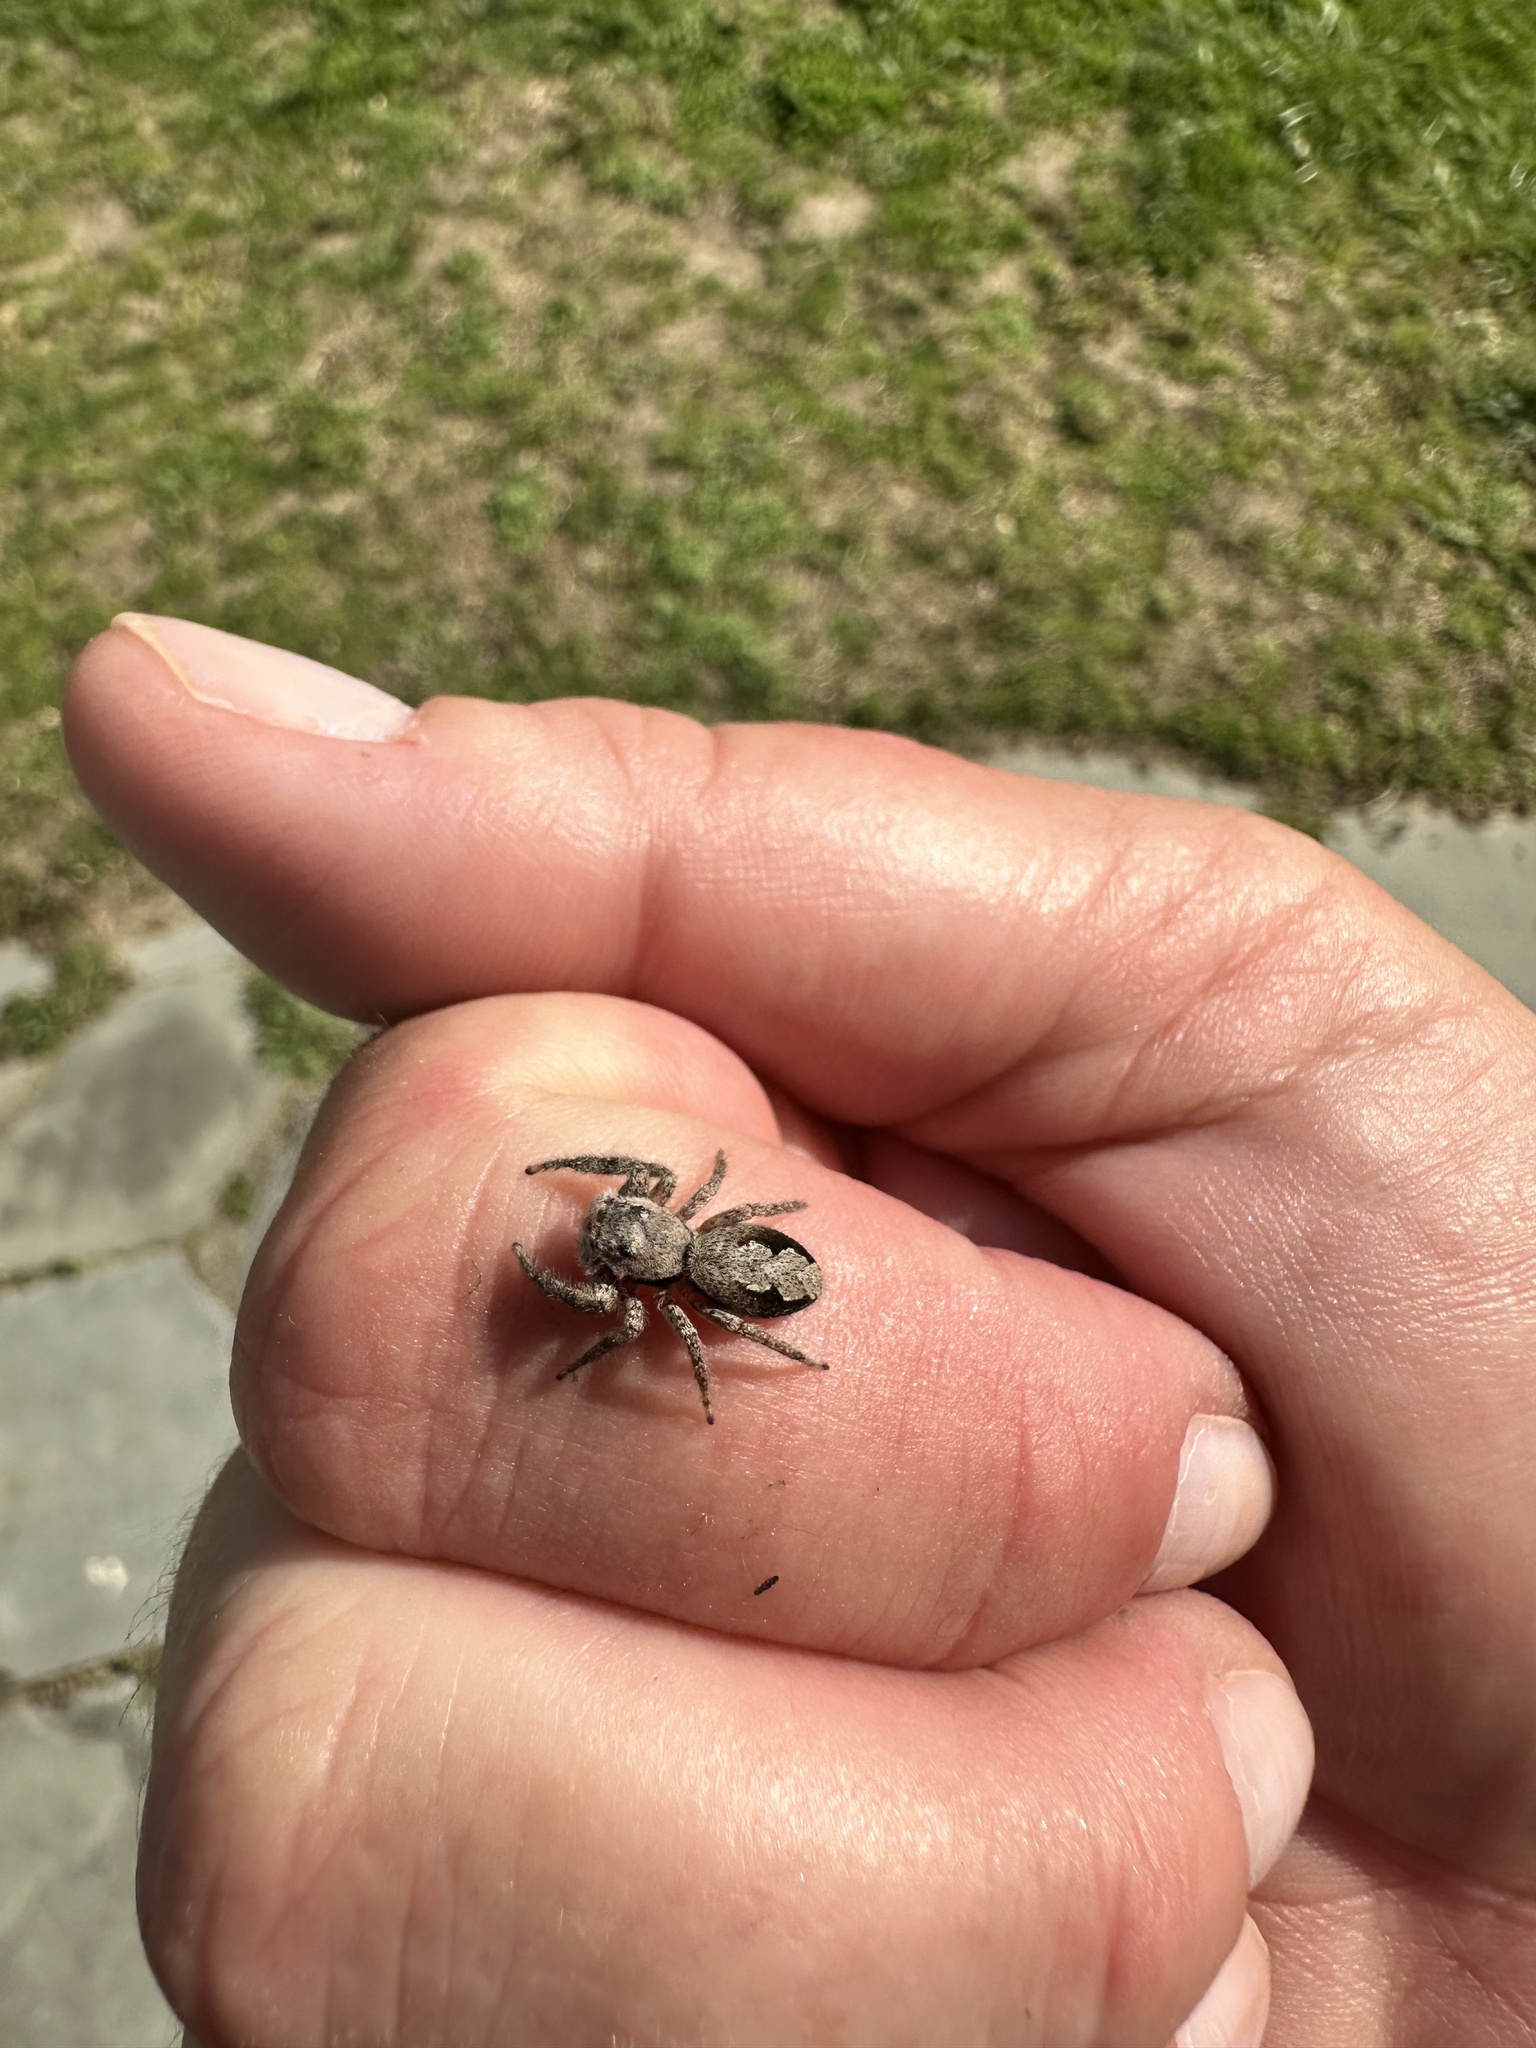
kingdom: Animalia
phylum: Arthropoda
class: Arachnida
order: Araneae
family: Salticidae
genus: Platycryptus
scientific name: Platycryptus undatus
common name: Tan jumping spider
